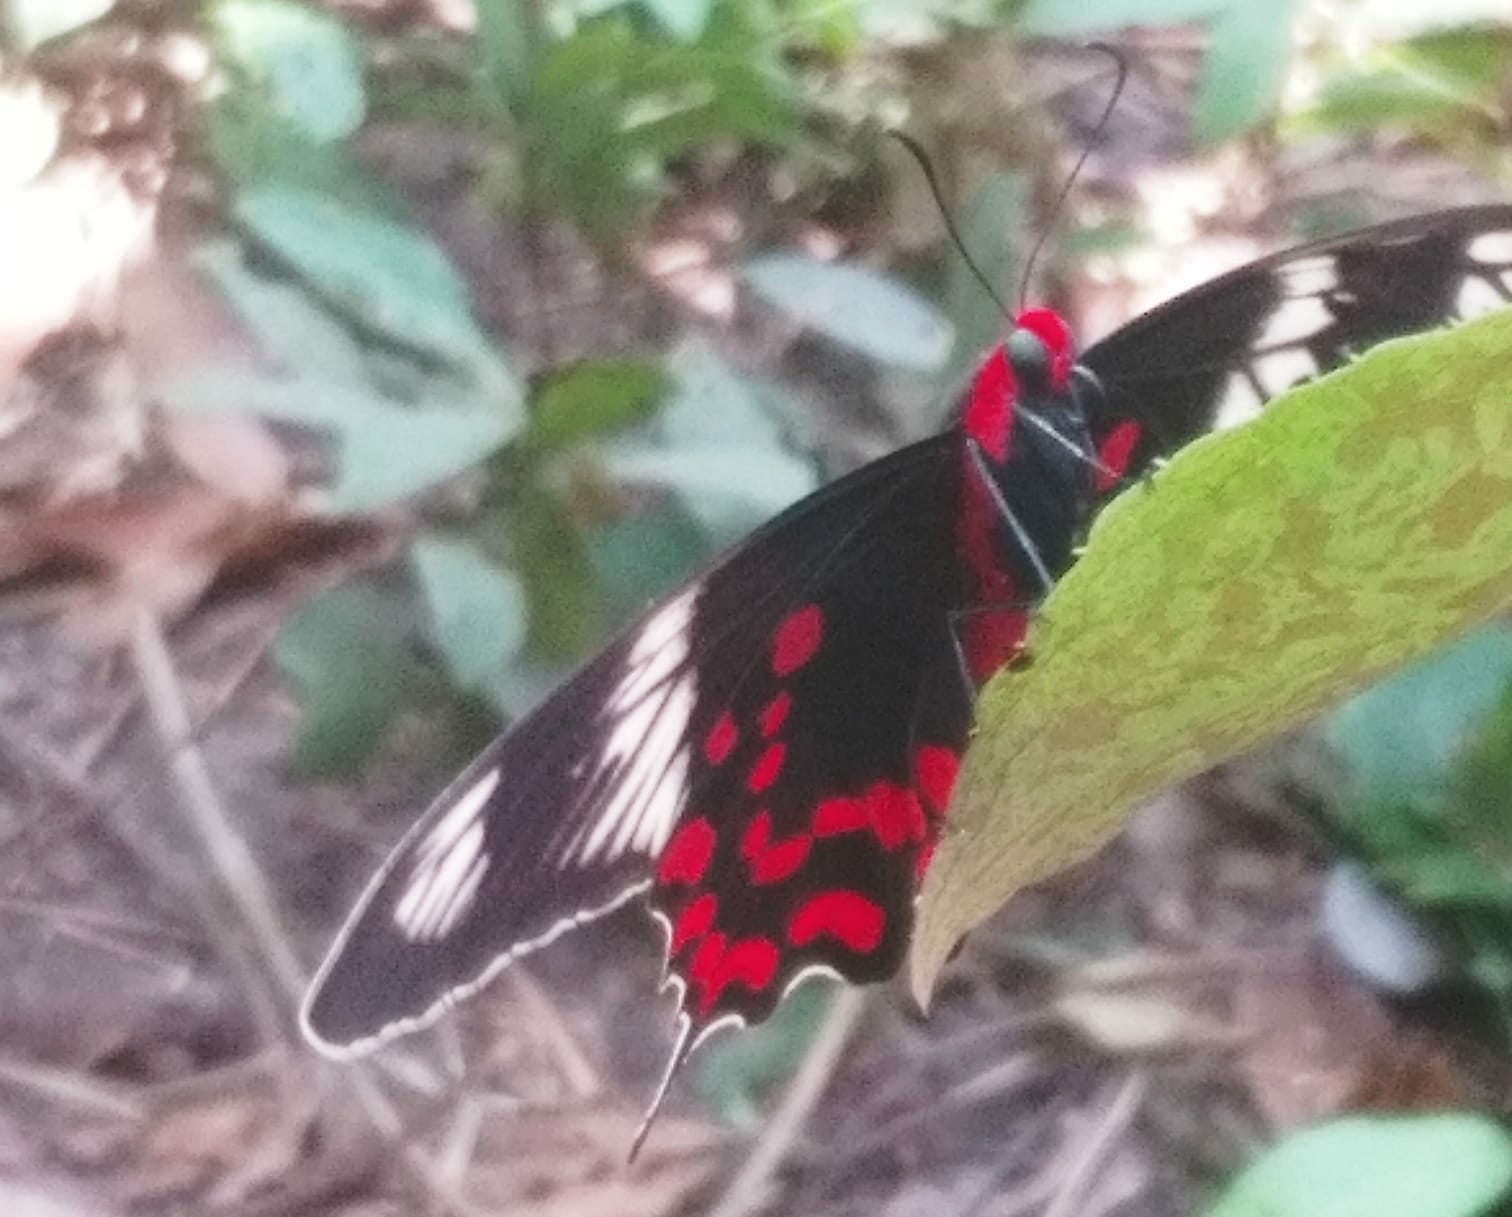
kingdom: Animalia
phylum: Arthropoda
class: Insecta
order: Lepidoptera
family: Papilionidae
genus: Pachliopta
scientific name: Pachliopta hector
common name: Crimson rose
